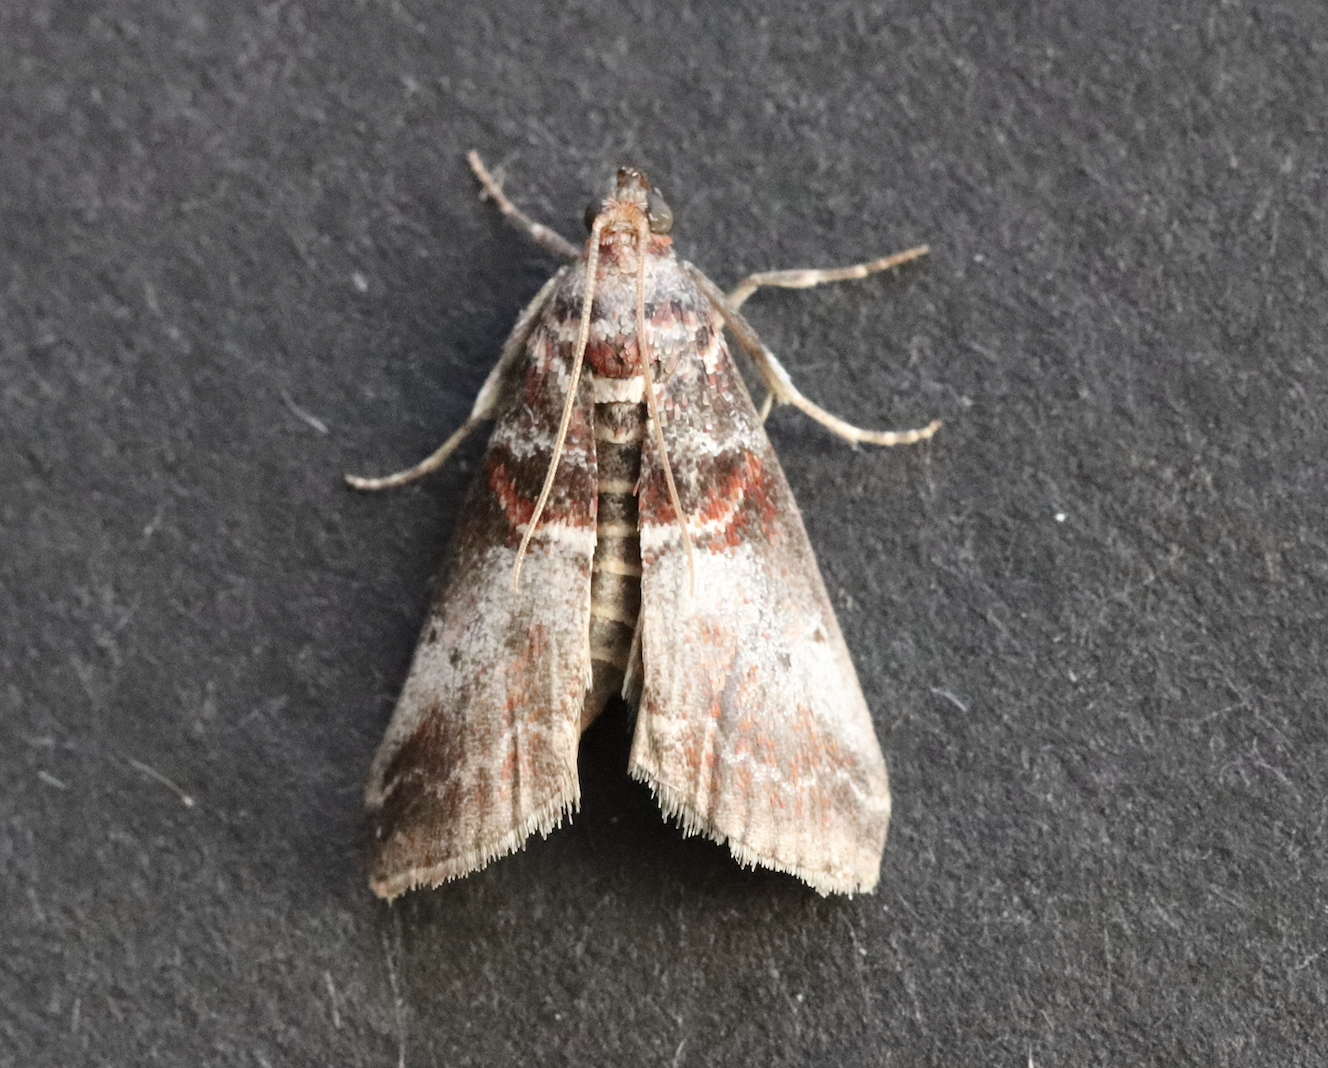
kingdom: Animalia
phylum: Arthropoda
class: Insecta
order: Lepidoptera
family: Pyralidae
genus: Acrobasis
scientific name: Acrobasis advenella
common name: Grey knot-horn
